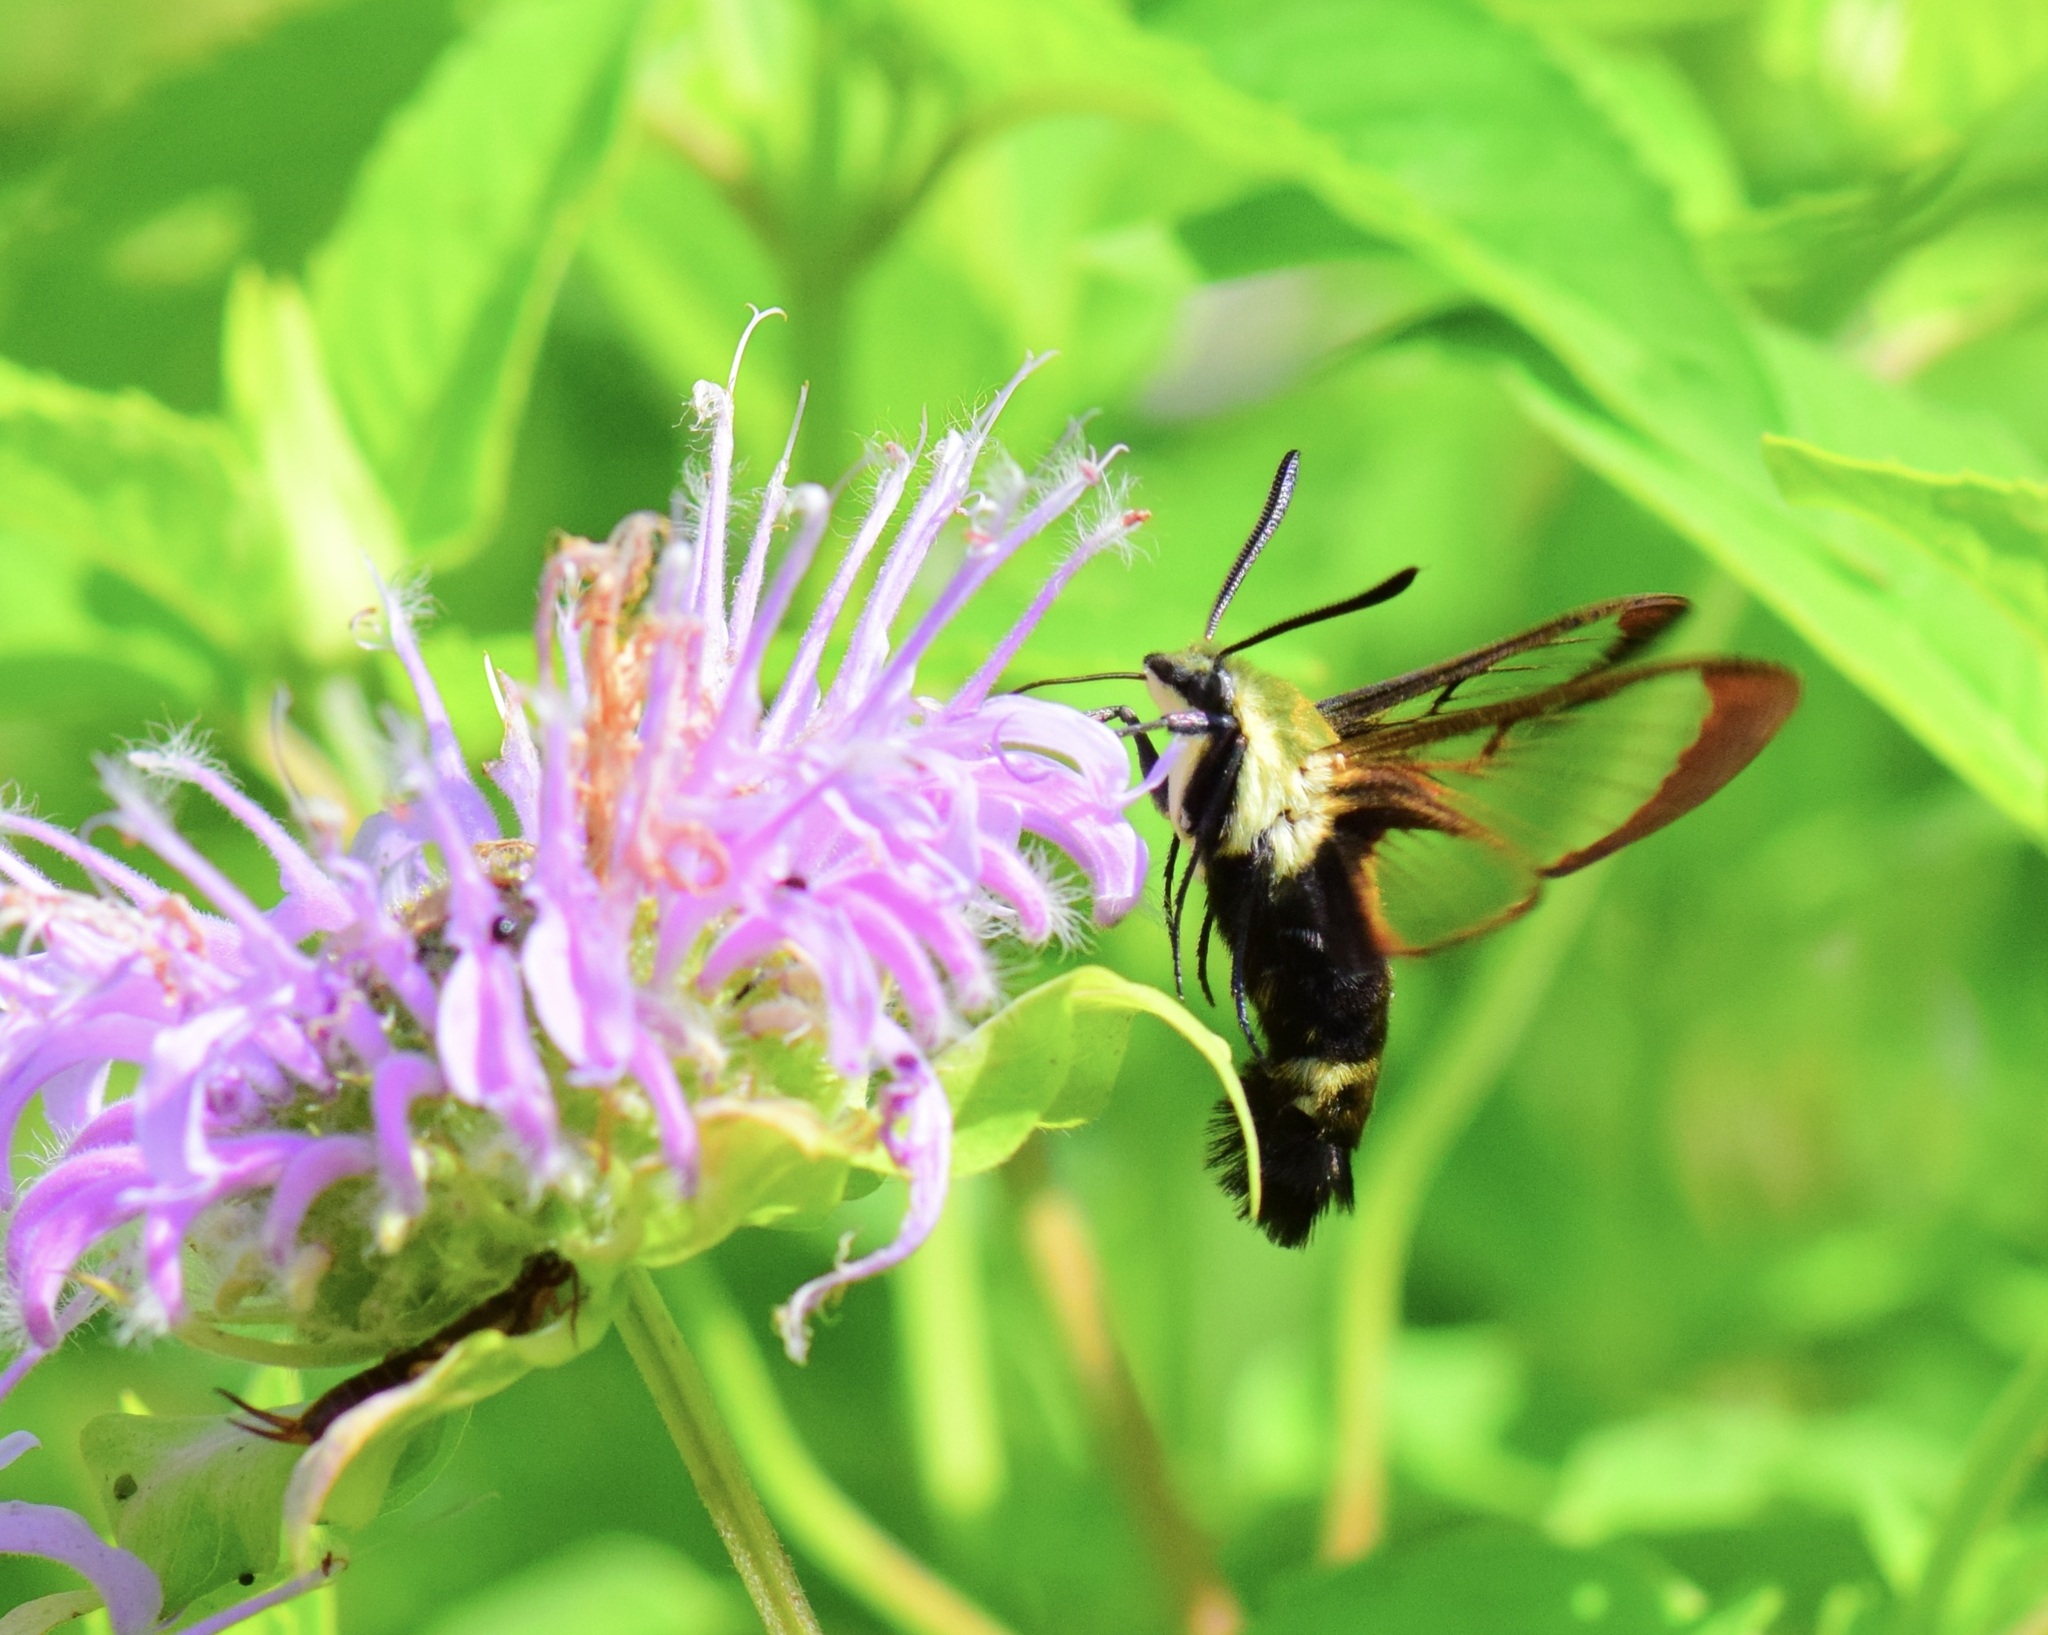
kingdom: Animalia
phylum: Arthropoda
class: Insecta
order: Lepidoptera
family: Sphingidae
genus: Hemaris
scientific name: Hemaris diffinis
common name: Bumblebee moth
